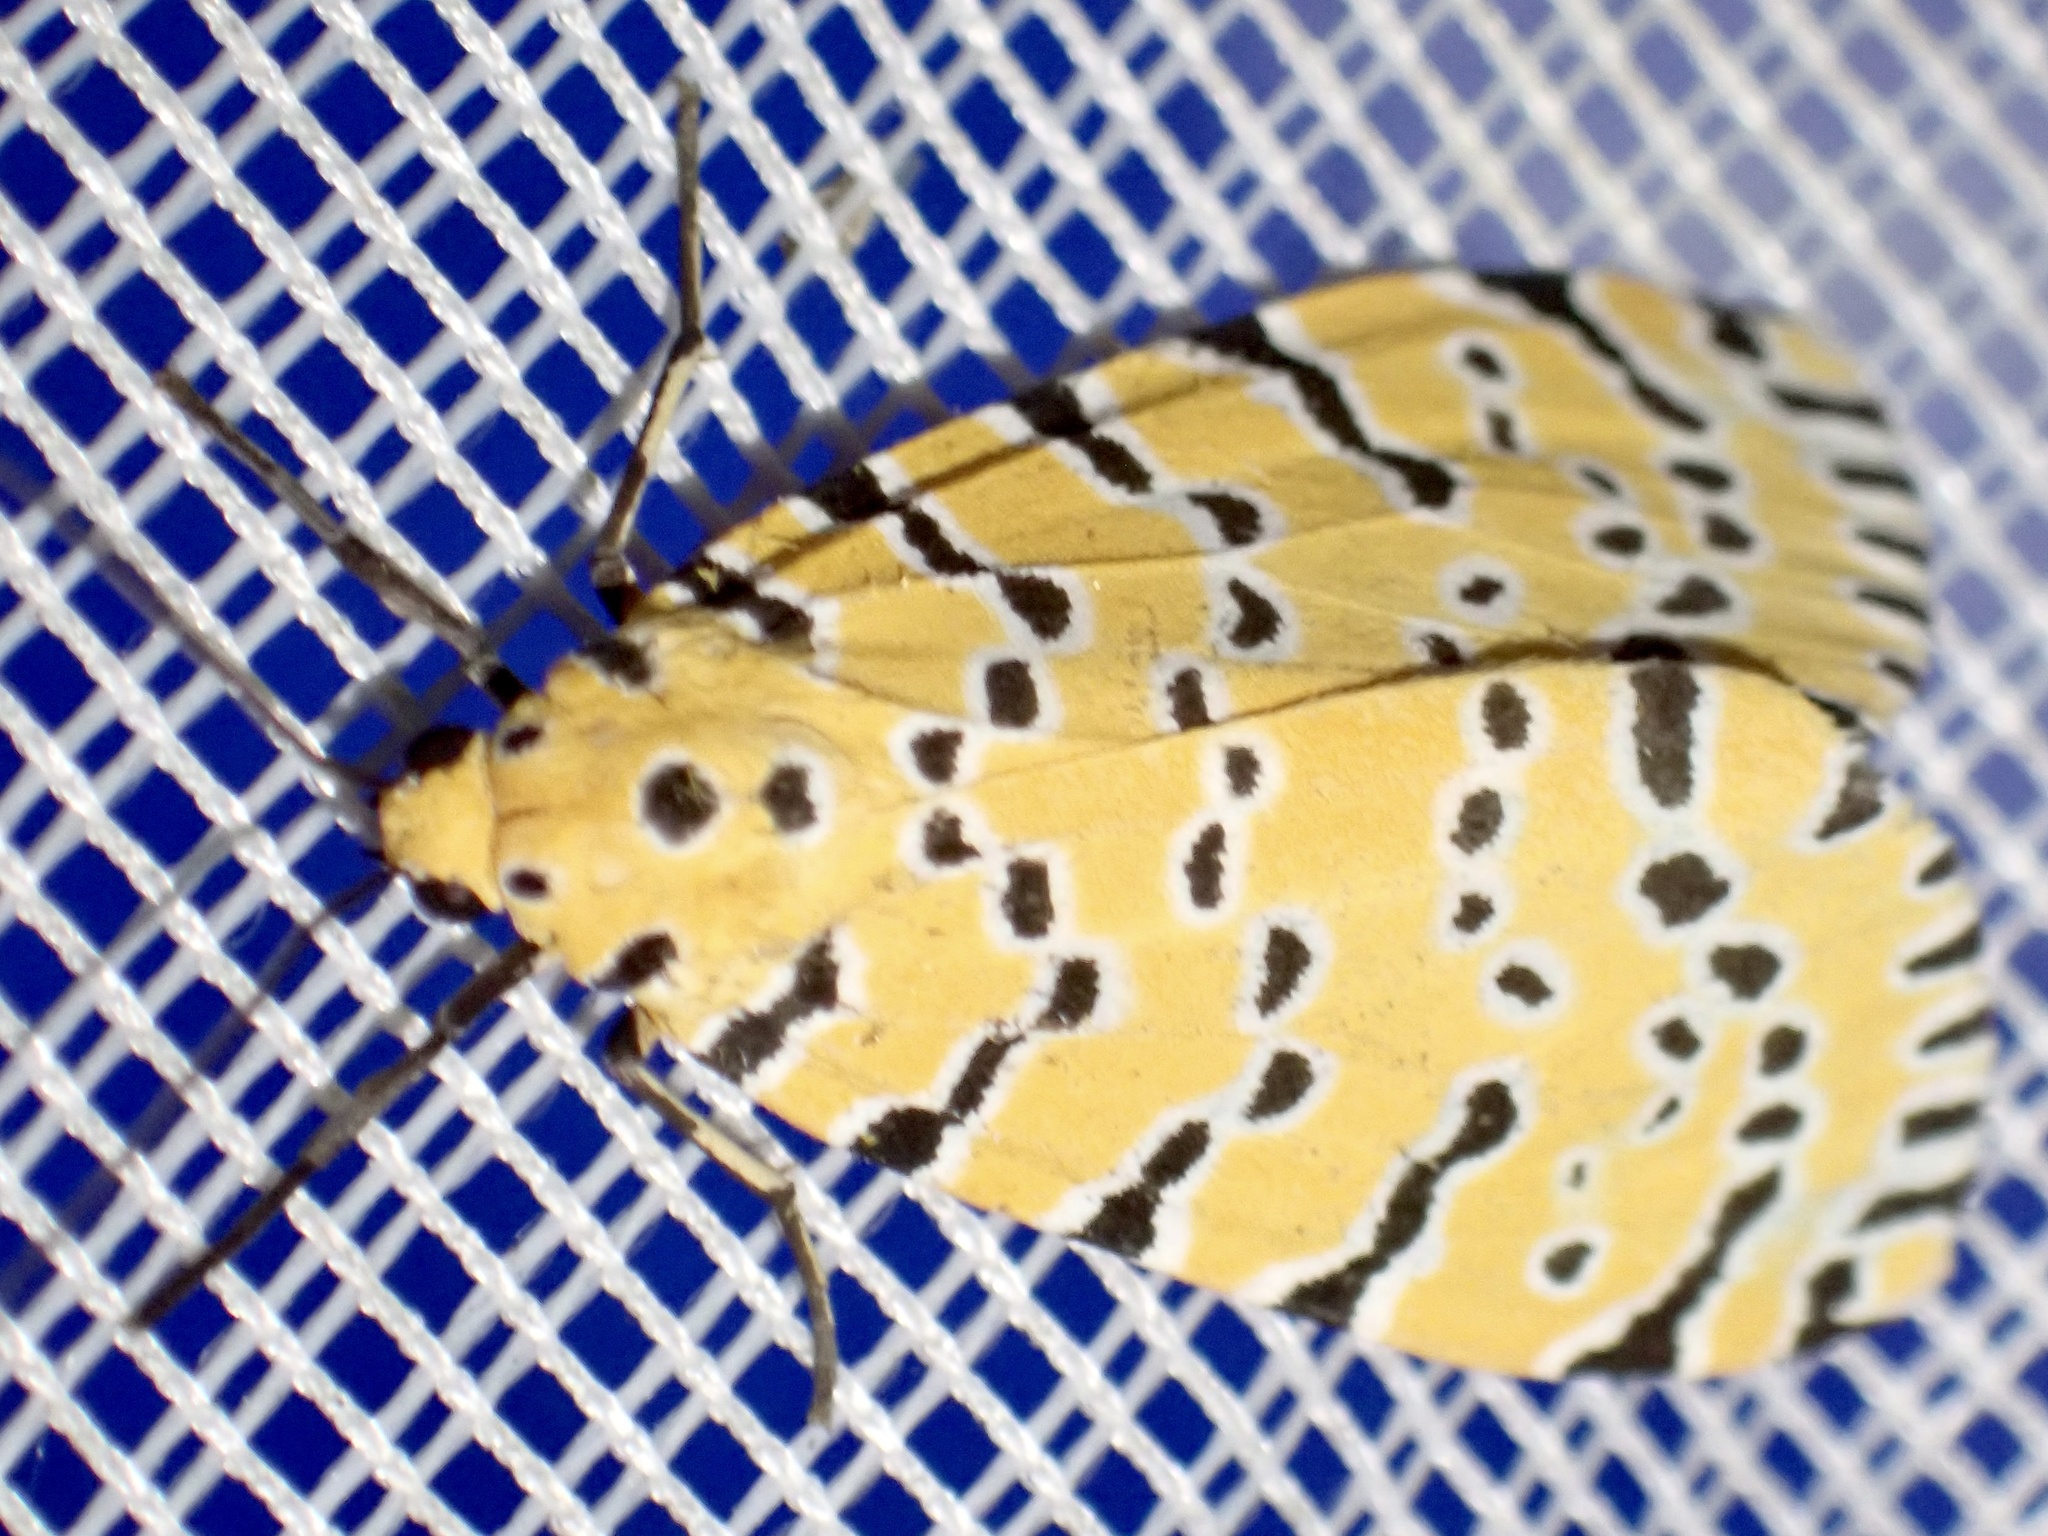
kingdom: Animalia
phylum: Arthropoda
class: Insecta
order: Lepidoptera
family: Erebidae
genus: Argina
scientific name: Argina Alytarchia amanda
